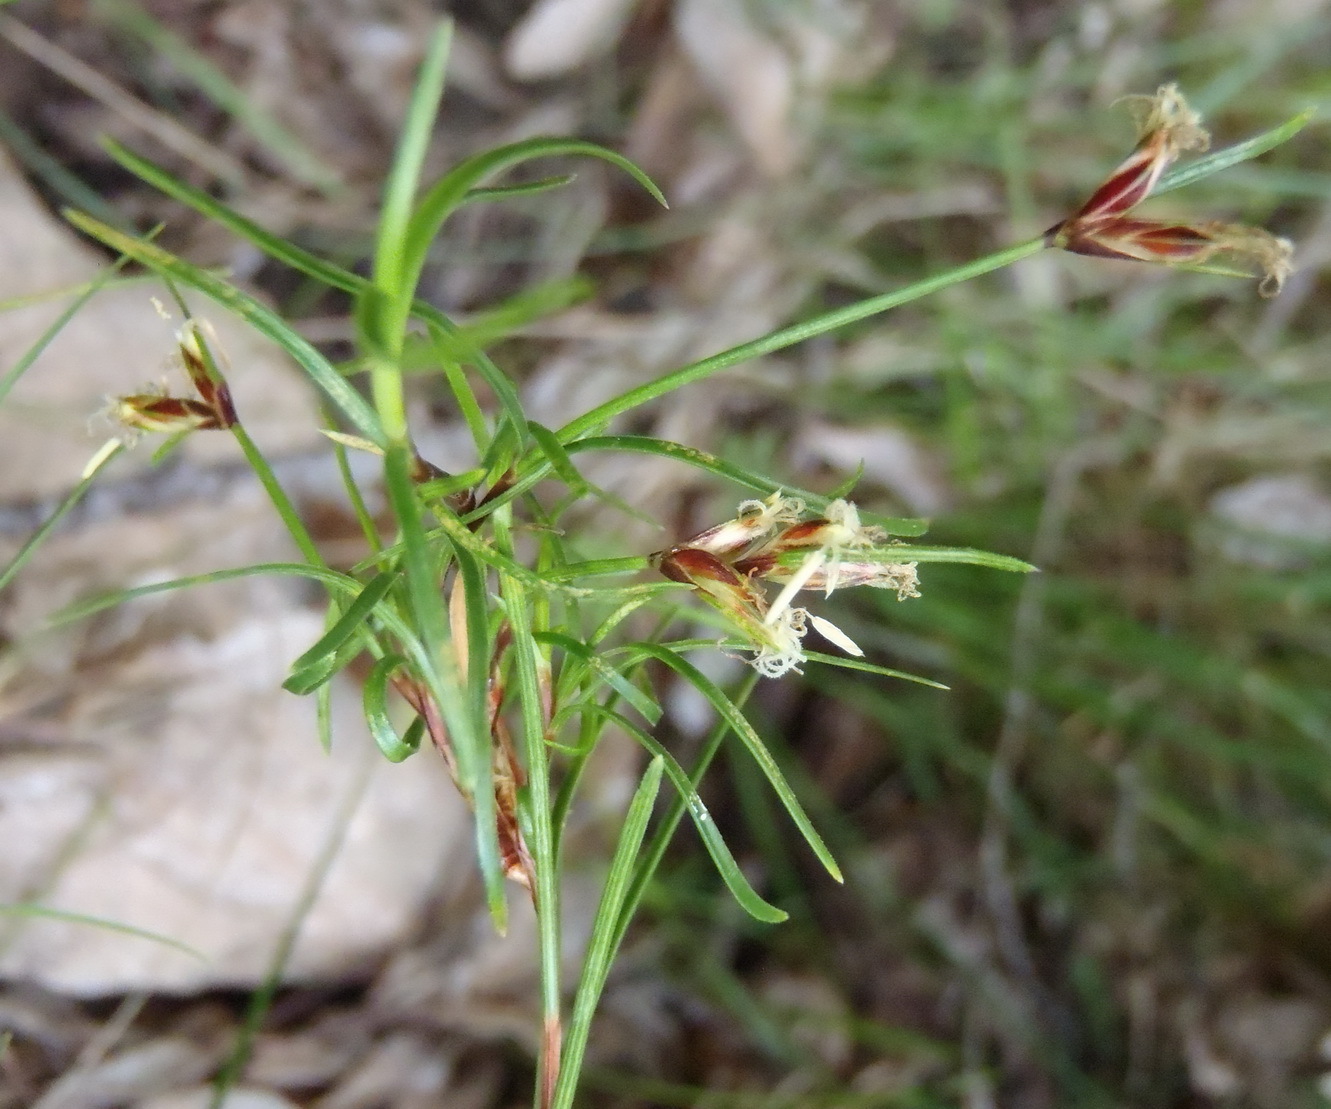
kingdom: Plantae
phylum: Tracheophyta
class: Liliopsida
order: Poales
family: Cyperaceae
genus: Ficinia
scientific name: Ficinia ramosissima
